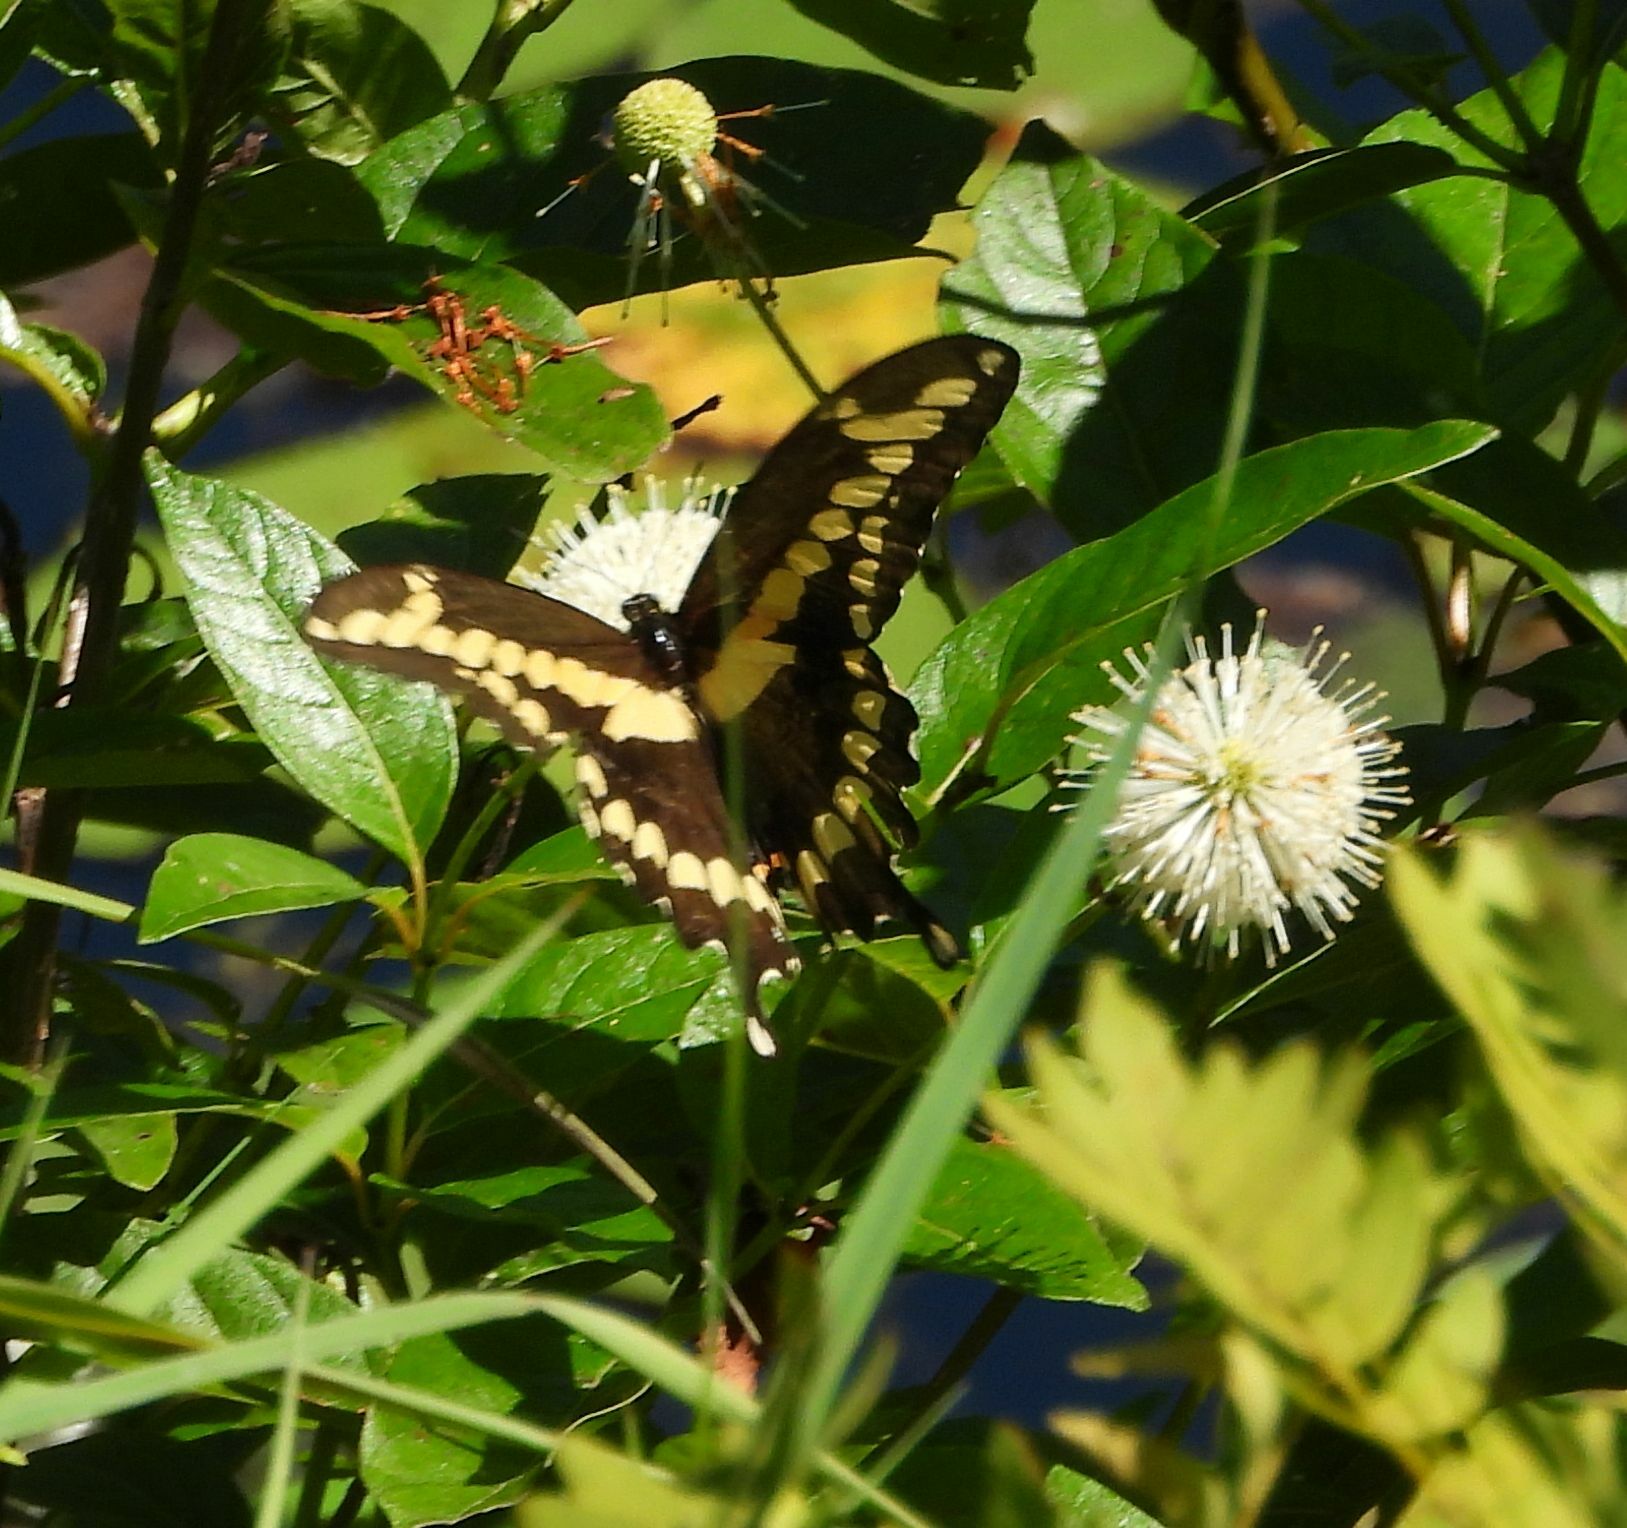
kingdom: Animalia
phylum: Arthropoda
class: Insecta
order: Lepidoptera
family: Papilionidae
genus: Papilio
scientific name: Papilio cresphontes
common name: Giant swallowtail
